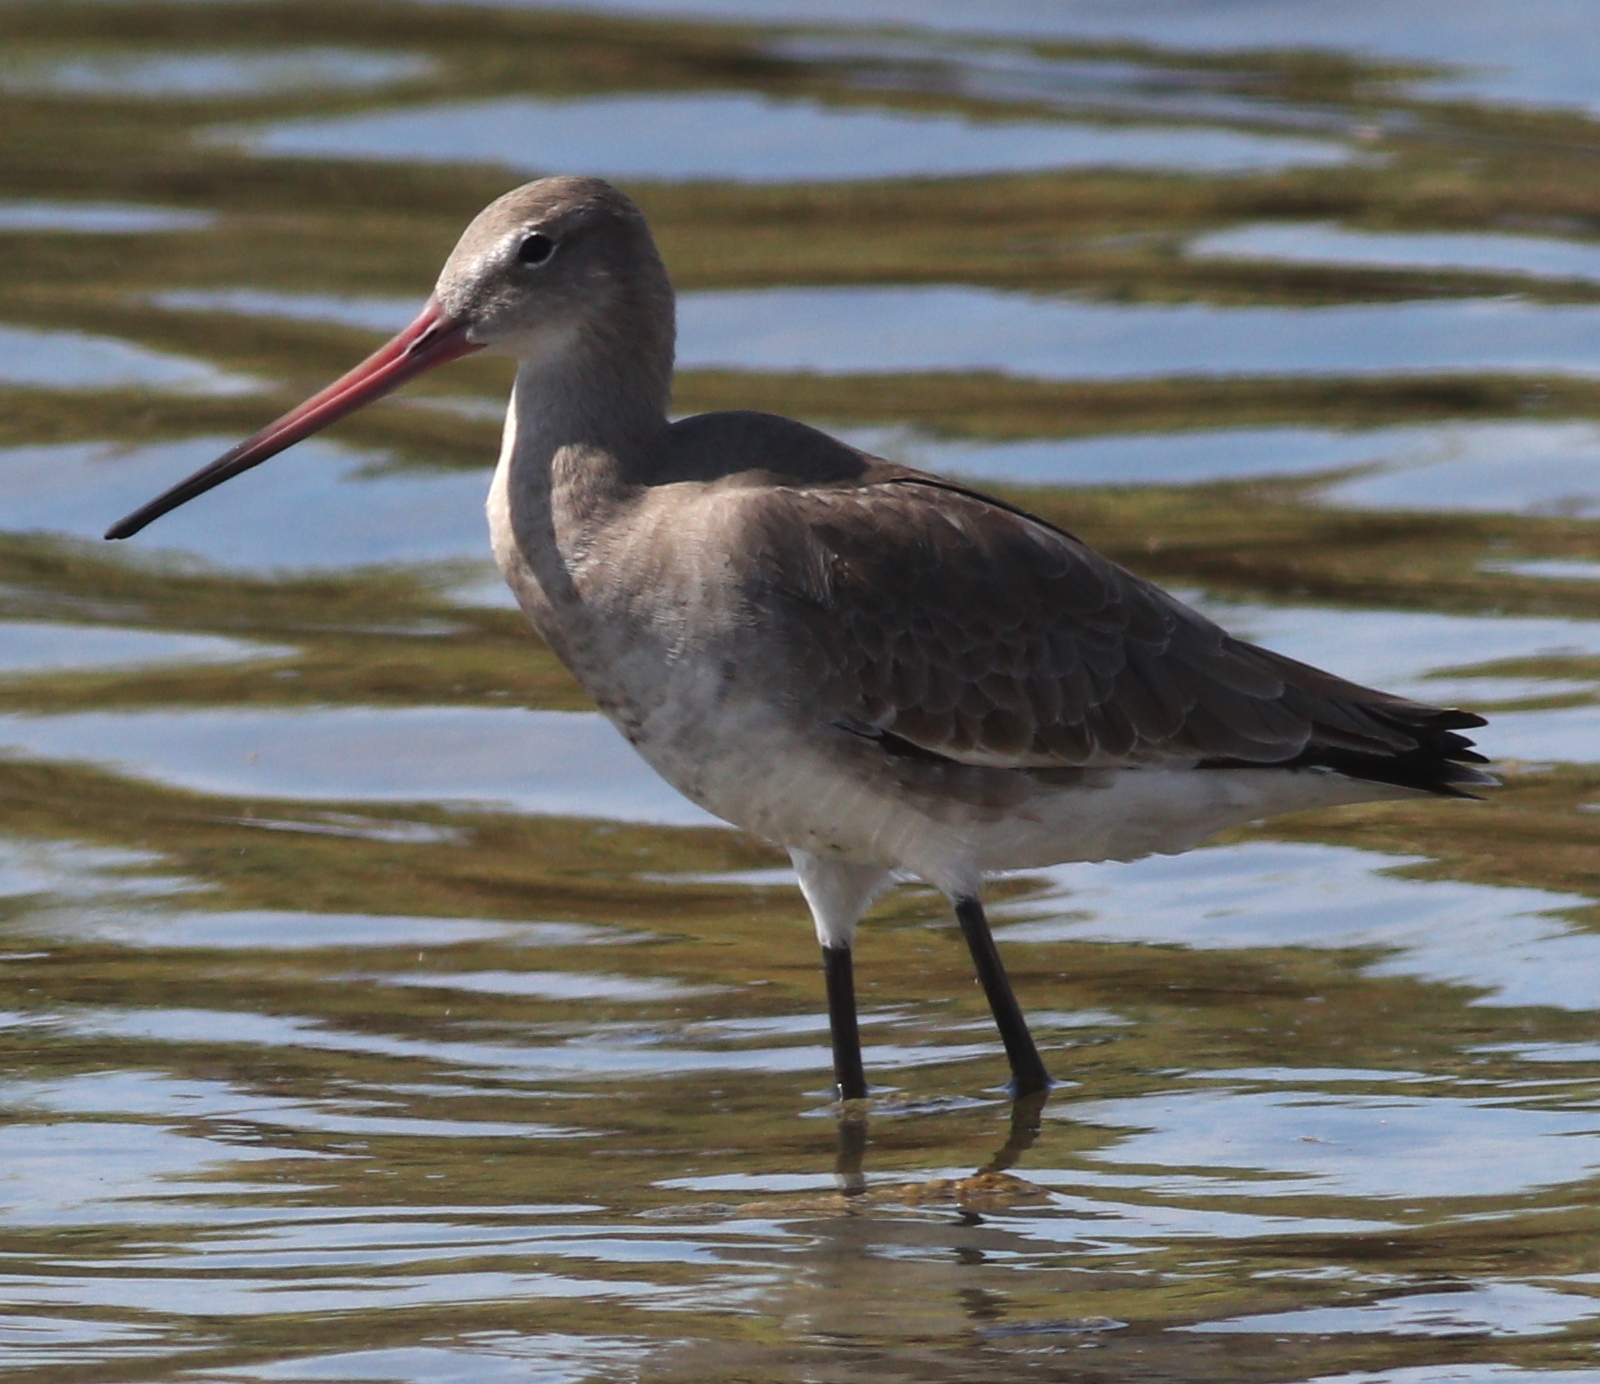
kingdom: Animalia
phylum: Chordata
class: Aves
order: Charadriiformes
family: Scolopacidae
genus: Limosa
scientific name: Limosa limosa
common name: Black-tailed godwit
